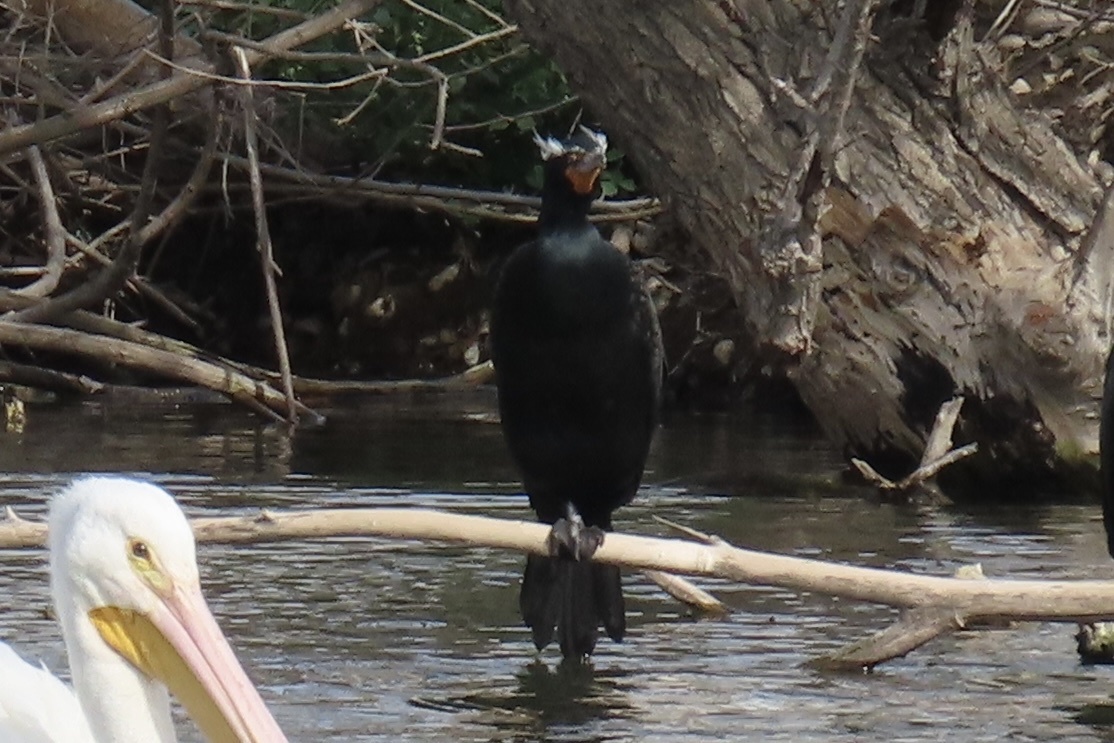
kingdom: Animalia
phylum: Chordata
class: Aves
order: Suliformes
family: Phalacrocoracidae
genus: Phalacrocorax
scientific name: Phalacrocorax auritus
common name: Double-crested cormorant
